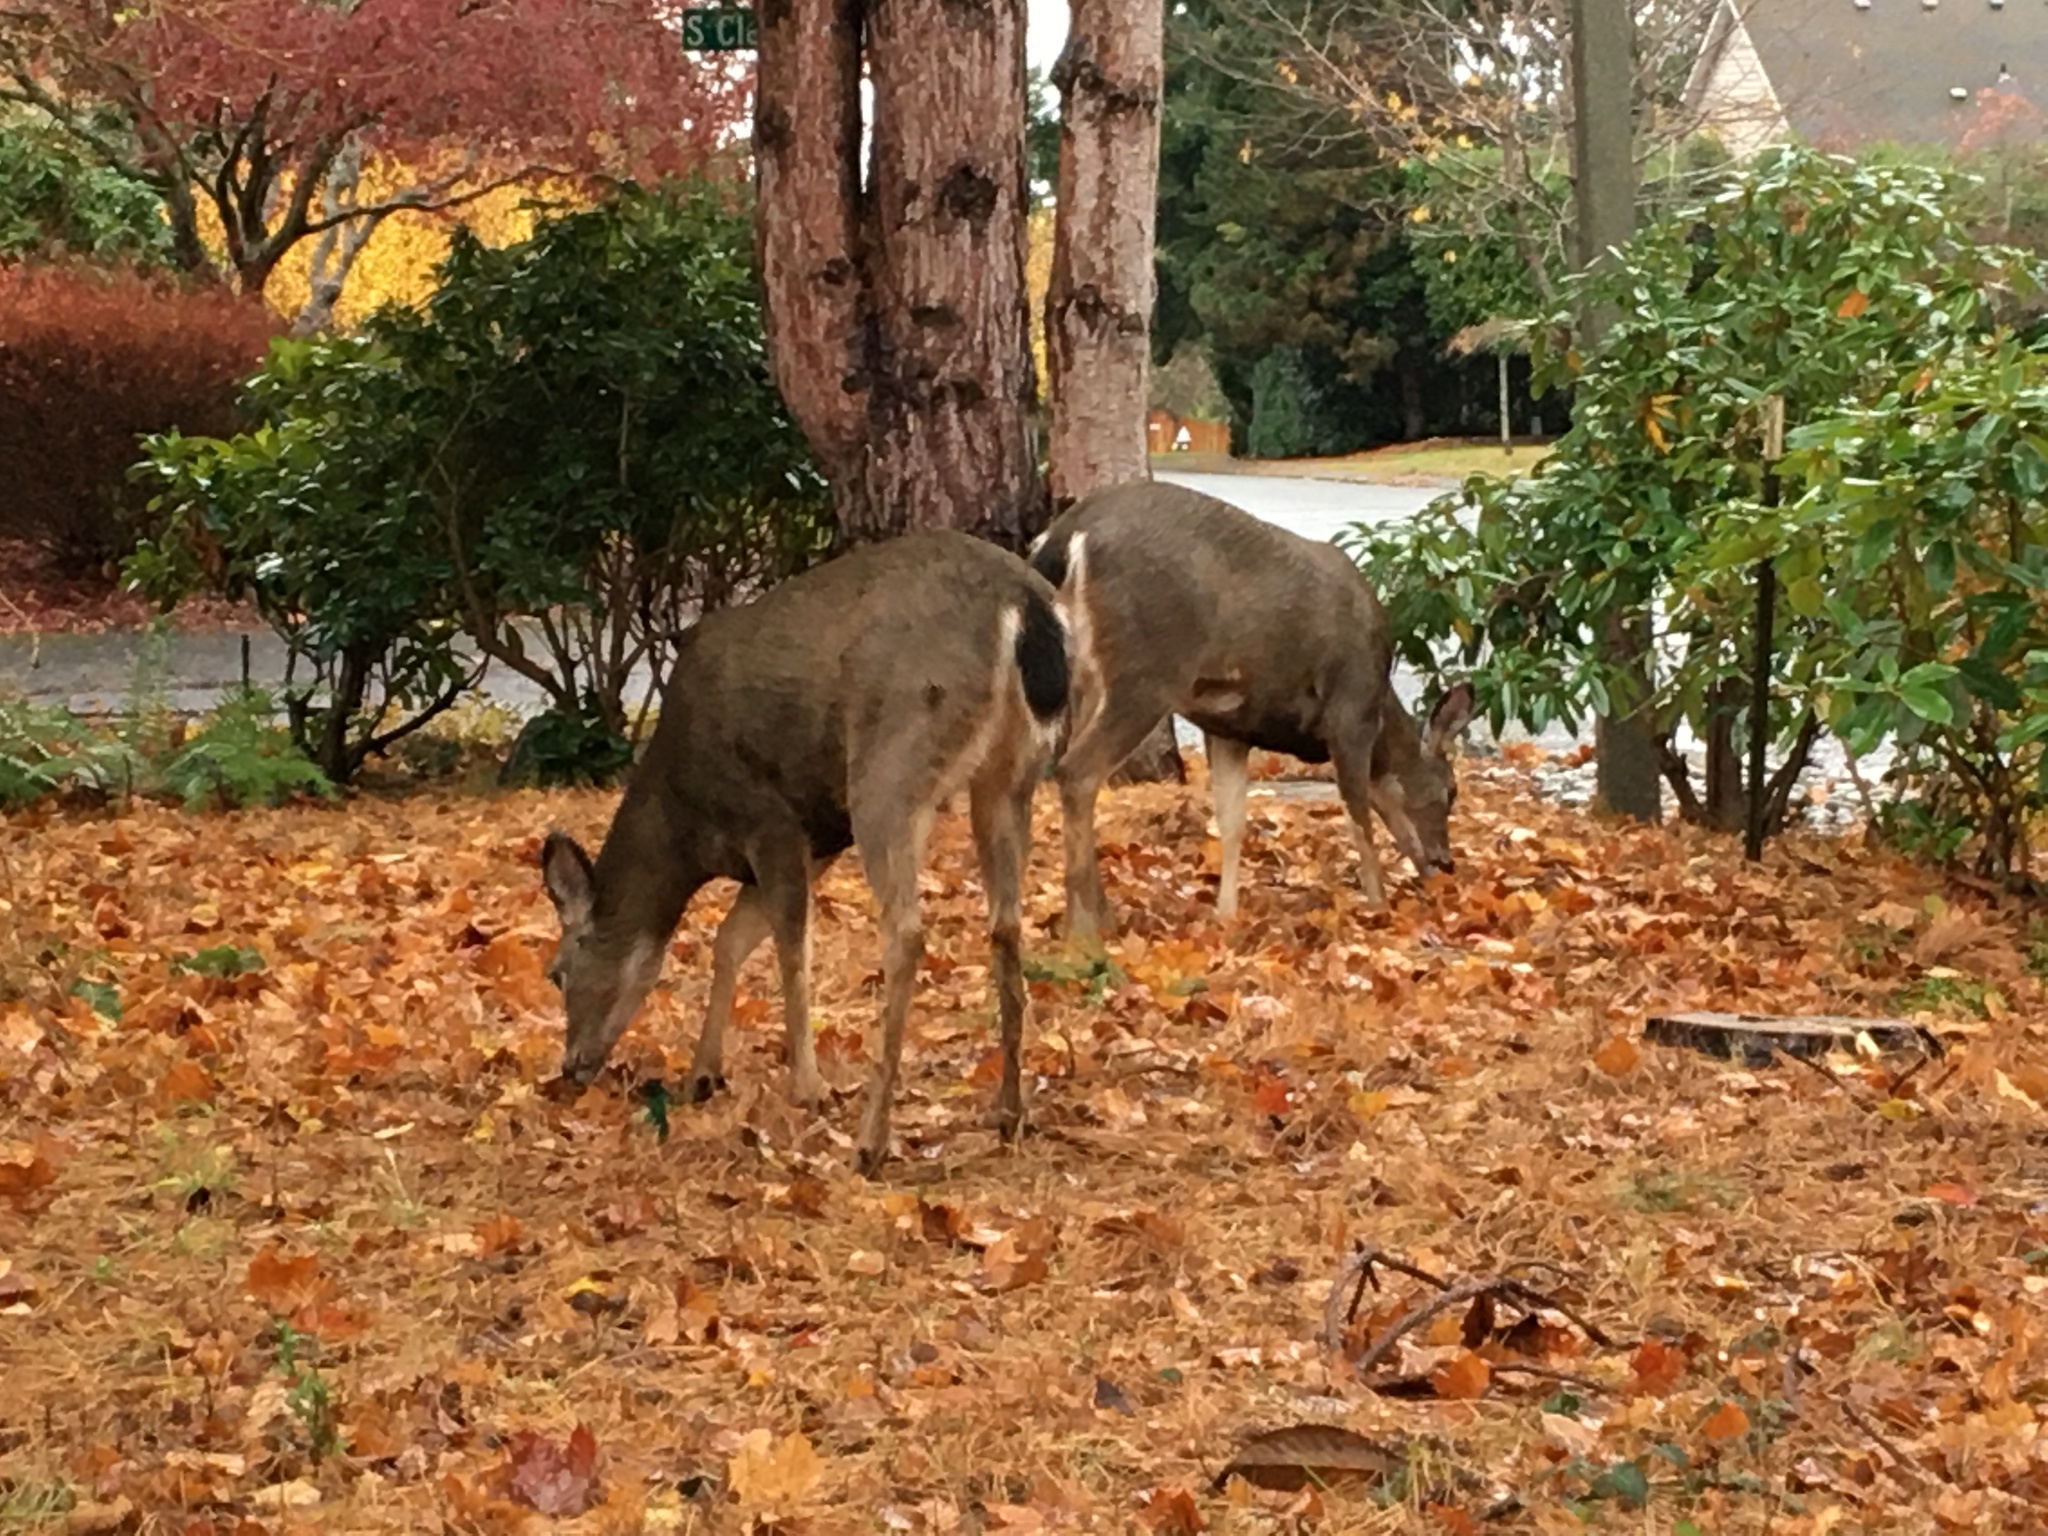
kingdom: Animalia
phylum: Chordata
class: Mammalia
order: Artiodactyla
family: Cervidae
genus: Odocoileus
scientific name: Odocoileus hemionus
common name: Mule deer
